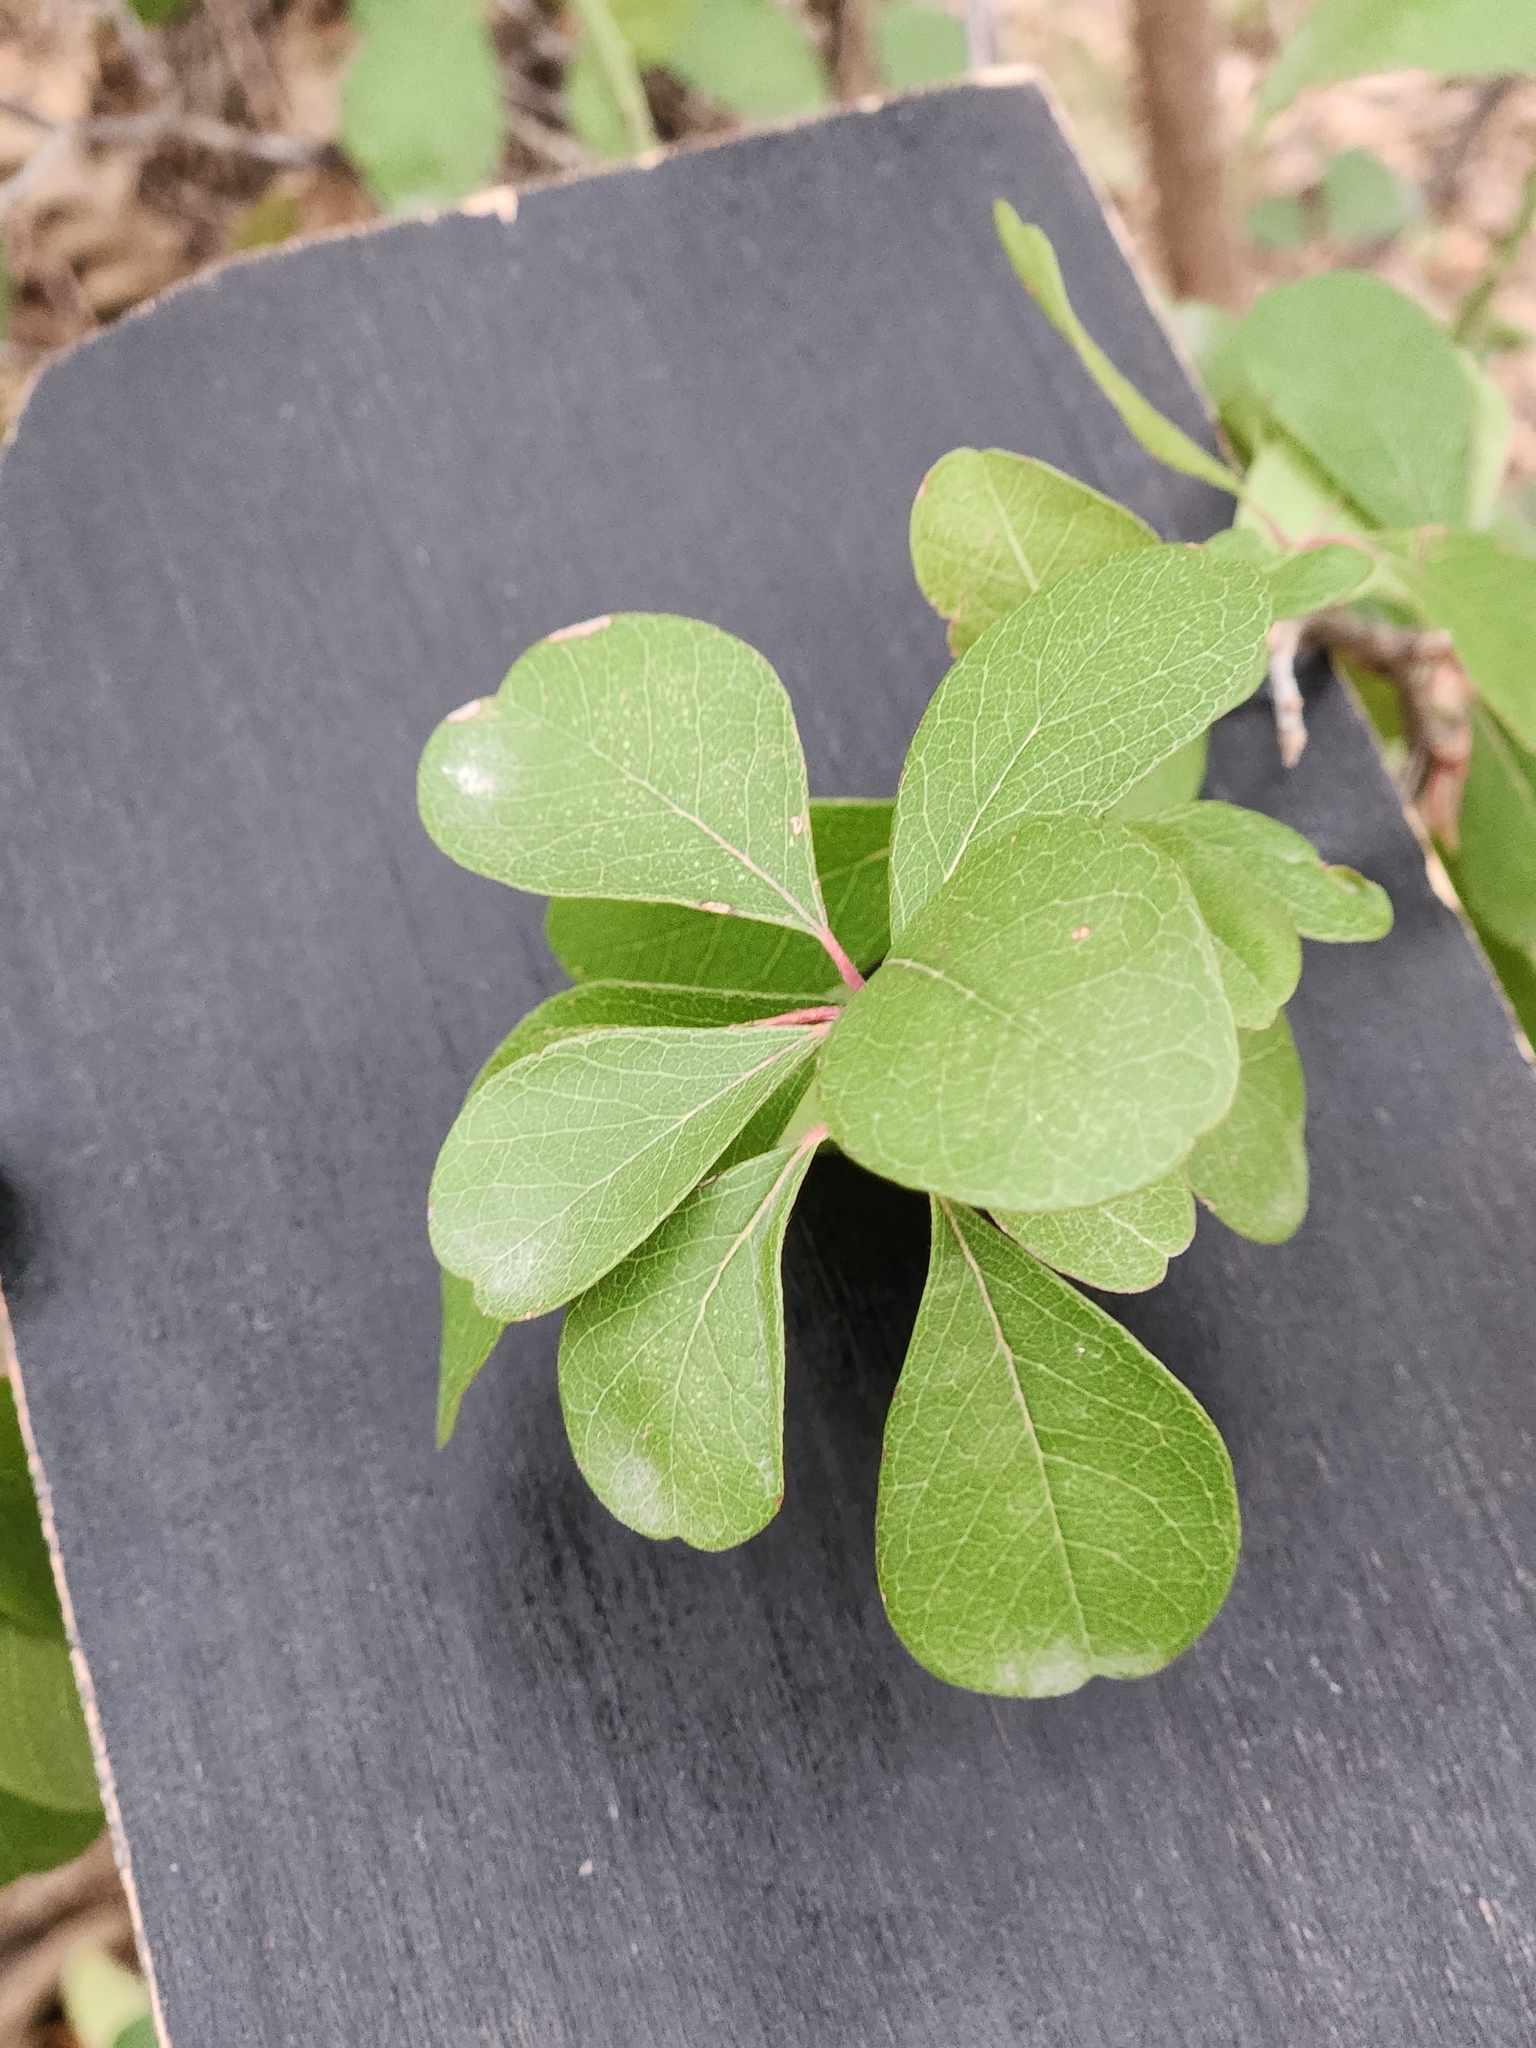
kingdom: Plantae
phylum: Tracheophyta
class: Magnoliopsida
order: Ericales
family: Sapotaceae
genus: Sideroxylon
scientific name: Sideroxylon lanuginosum
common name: Chittamwood
